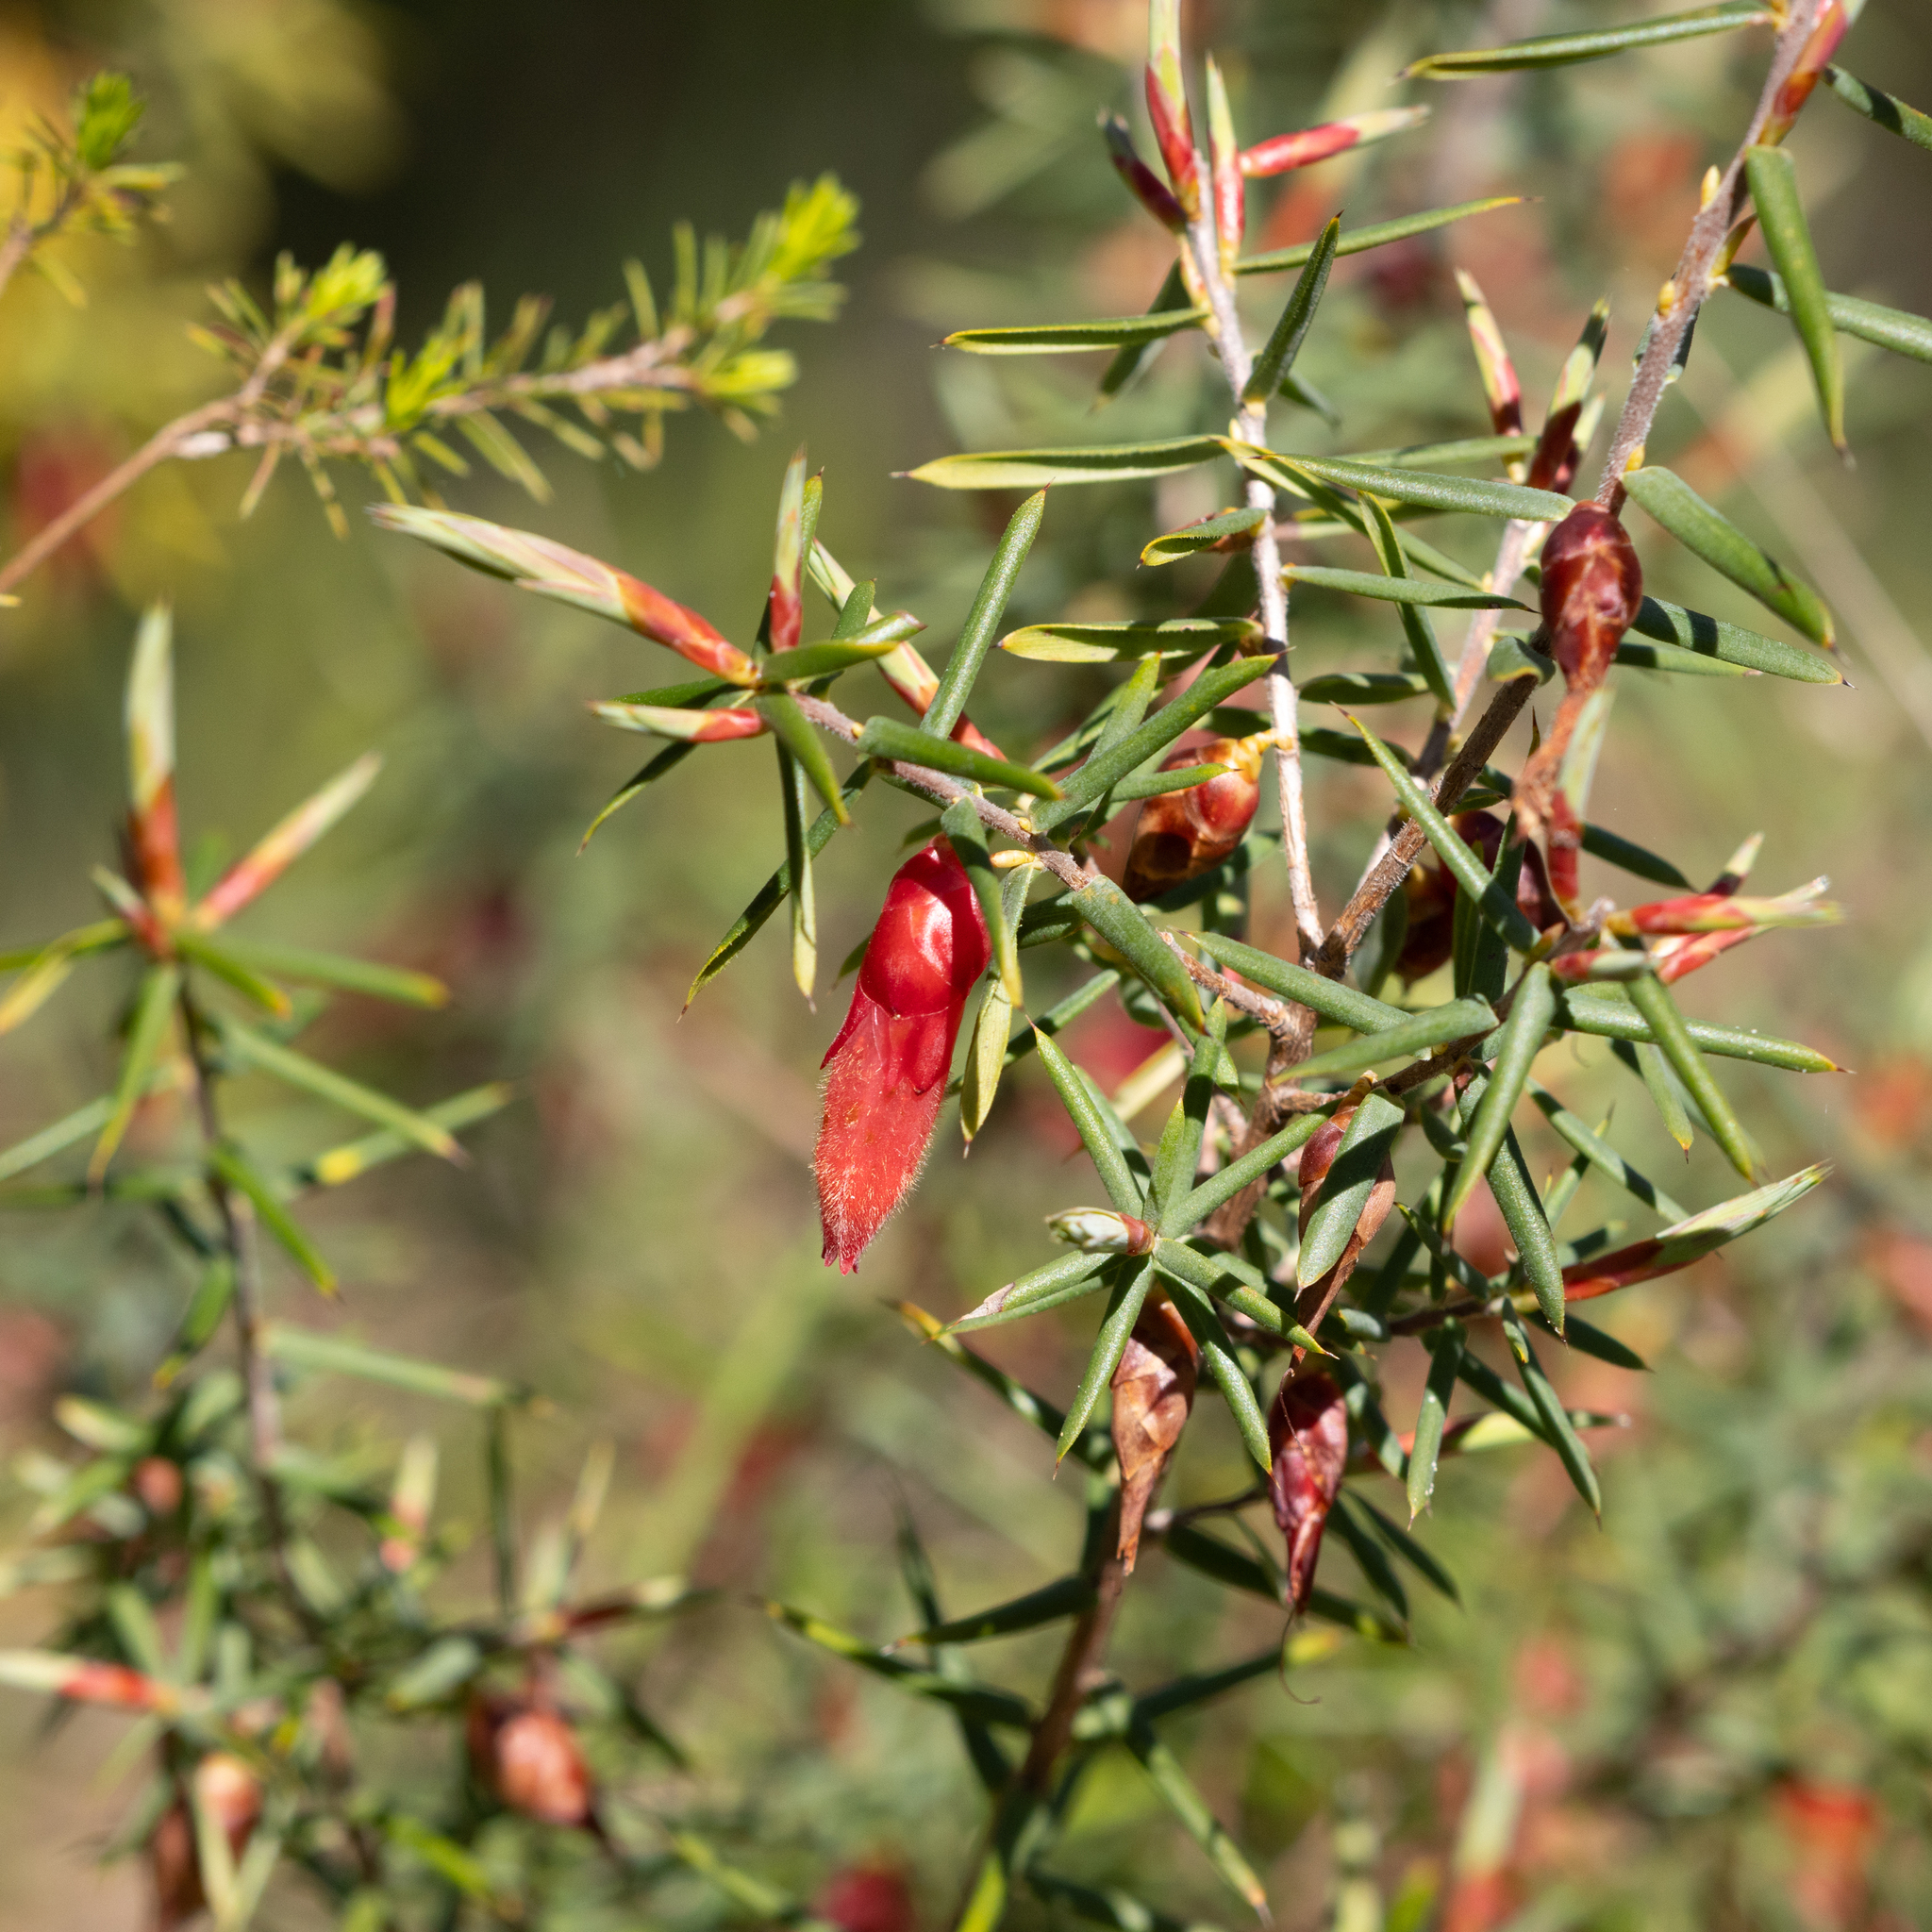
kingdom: Plantae
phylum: Tracheophyta
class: Magnoliopsida
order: Ericales
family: Ericaceae
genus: Stenanthera
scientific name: Stenanthera conostephioides
